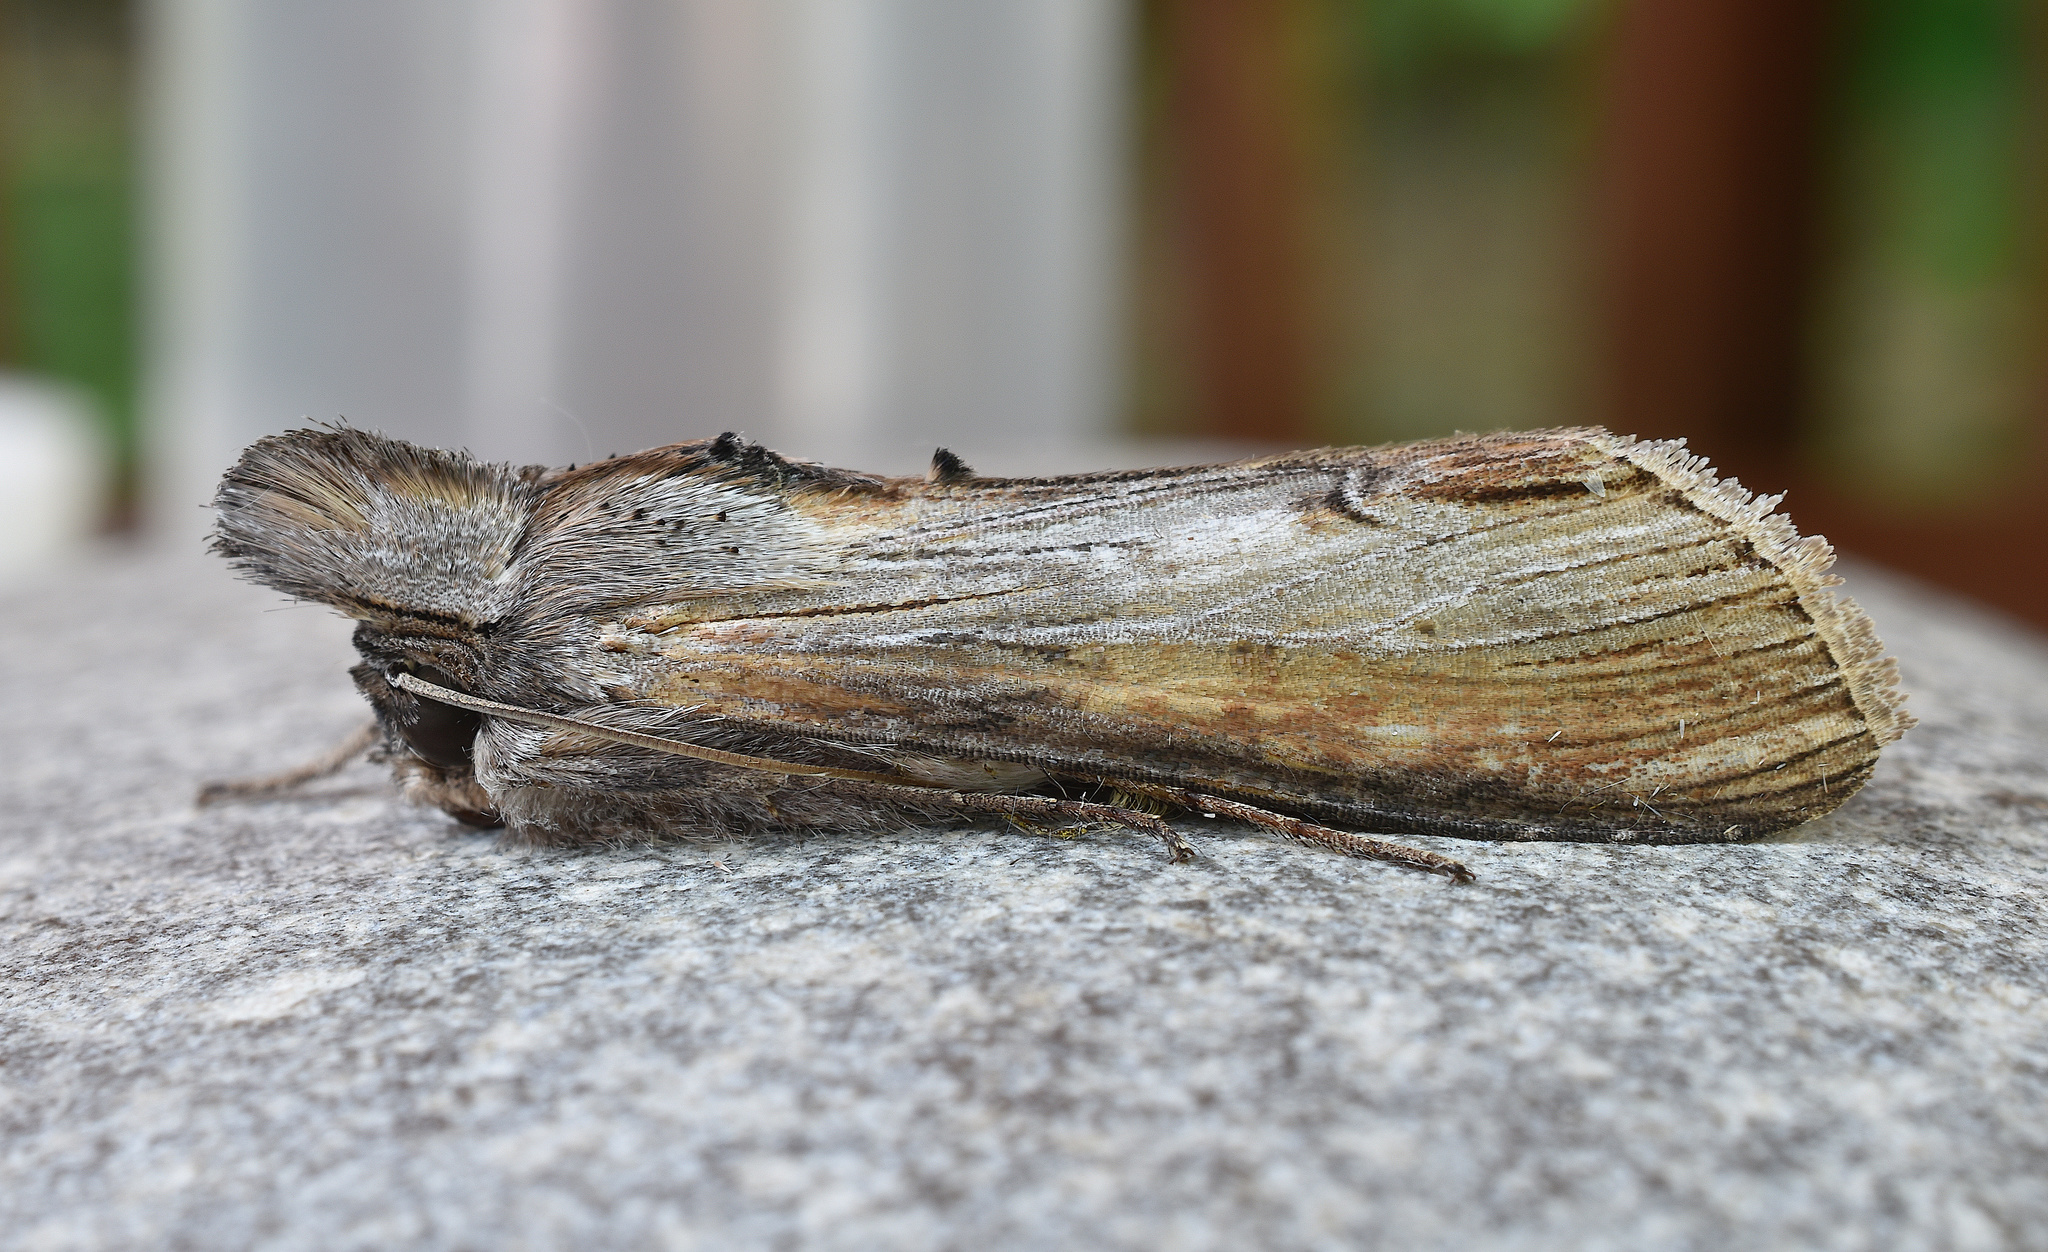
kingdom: Animalia
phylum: Arthropoda
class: Insecta
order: Lepidoptera
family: Noctuidae
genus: Cucullia
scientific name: Cucullia asteroides
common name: Asteroid moth
